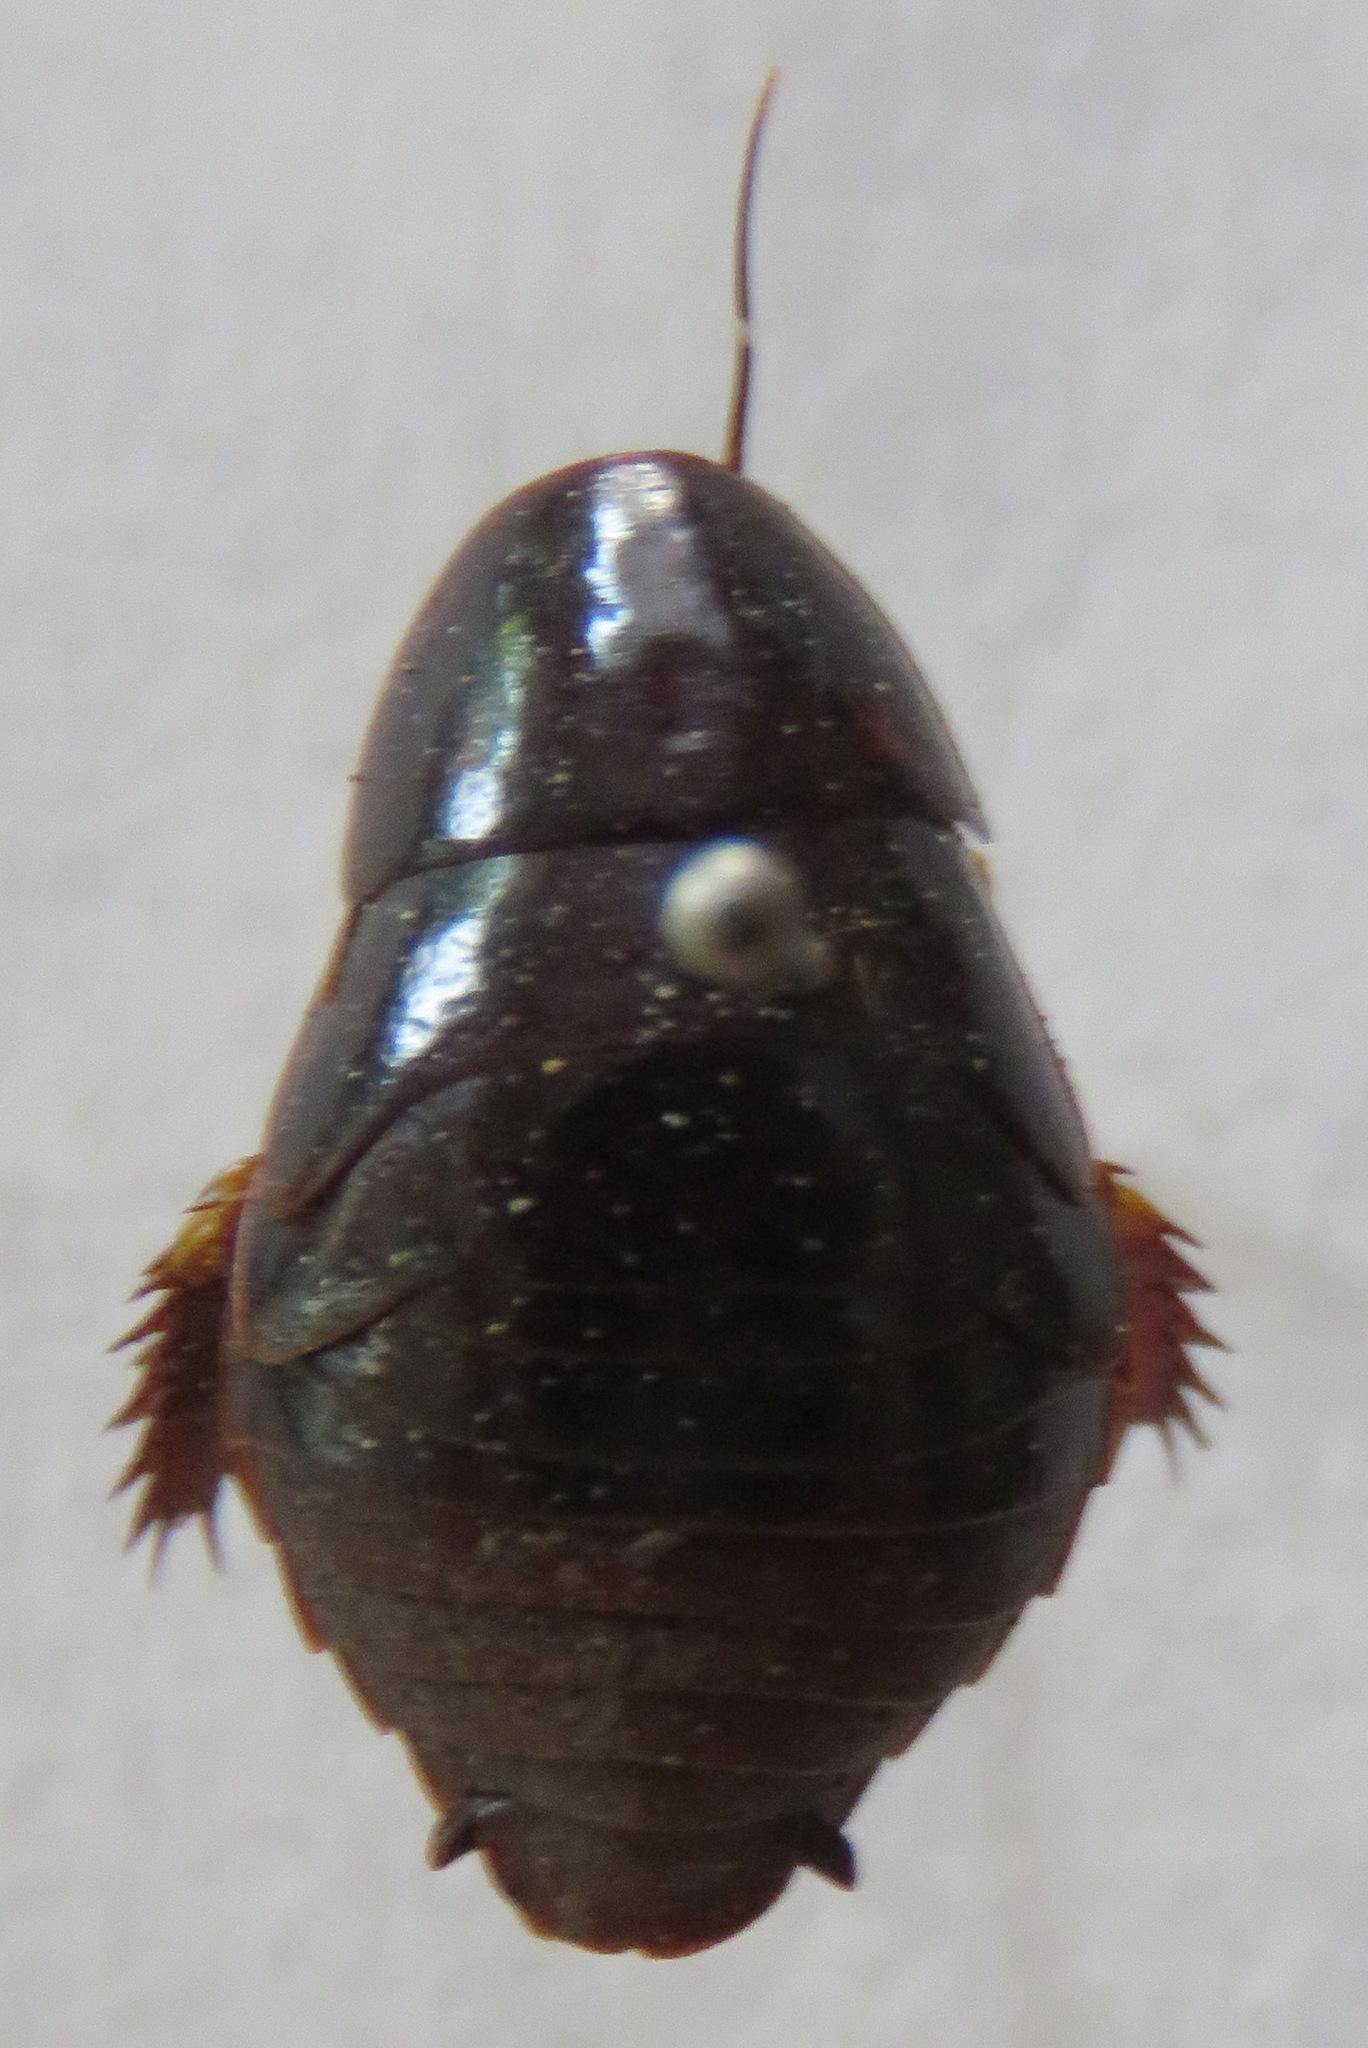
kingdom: Animalia
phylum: Arthropoda
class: Insecta
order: Blattodea
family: Blaberidae
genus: Pycnoscelus
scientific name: Pycnoscelus surinamensis
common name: Surinam cockroach
